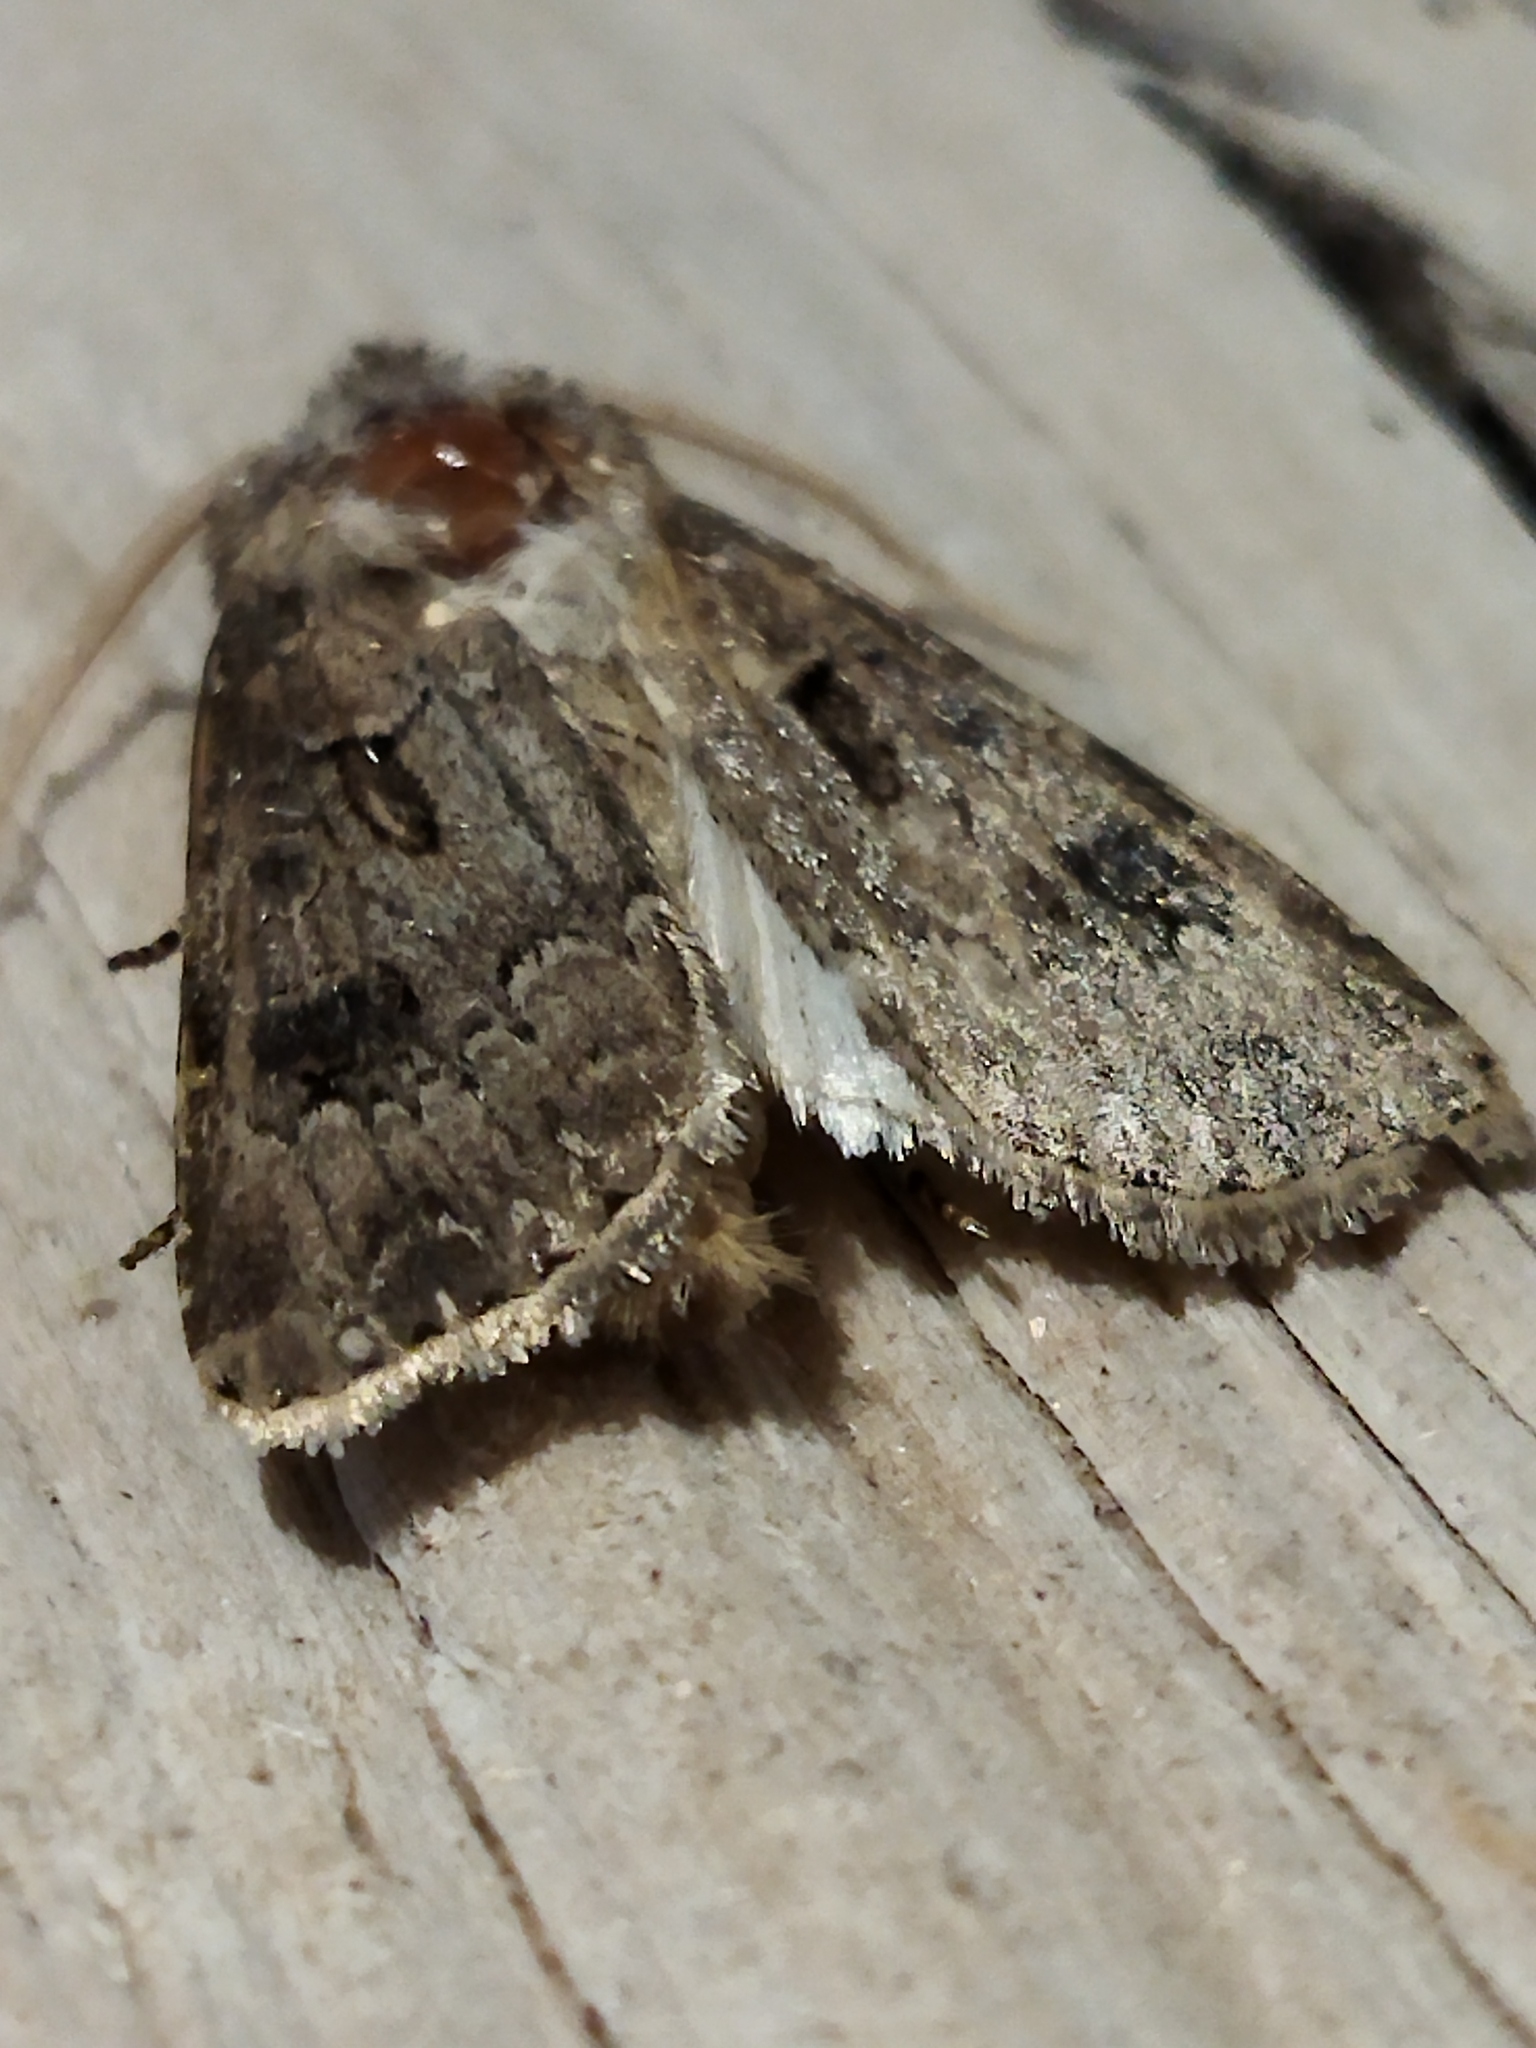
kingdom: Animalia
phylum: Arthropoda
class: Insecta
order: Lepidoptera
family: Noctuidae
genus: Agrotis
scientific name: Agrotis bigramma
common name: Great dart
